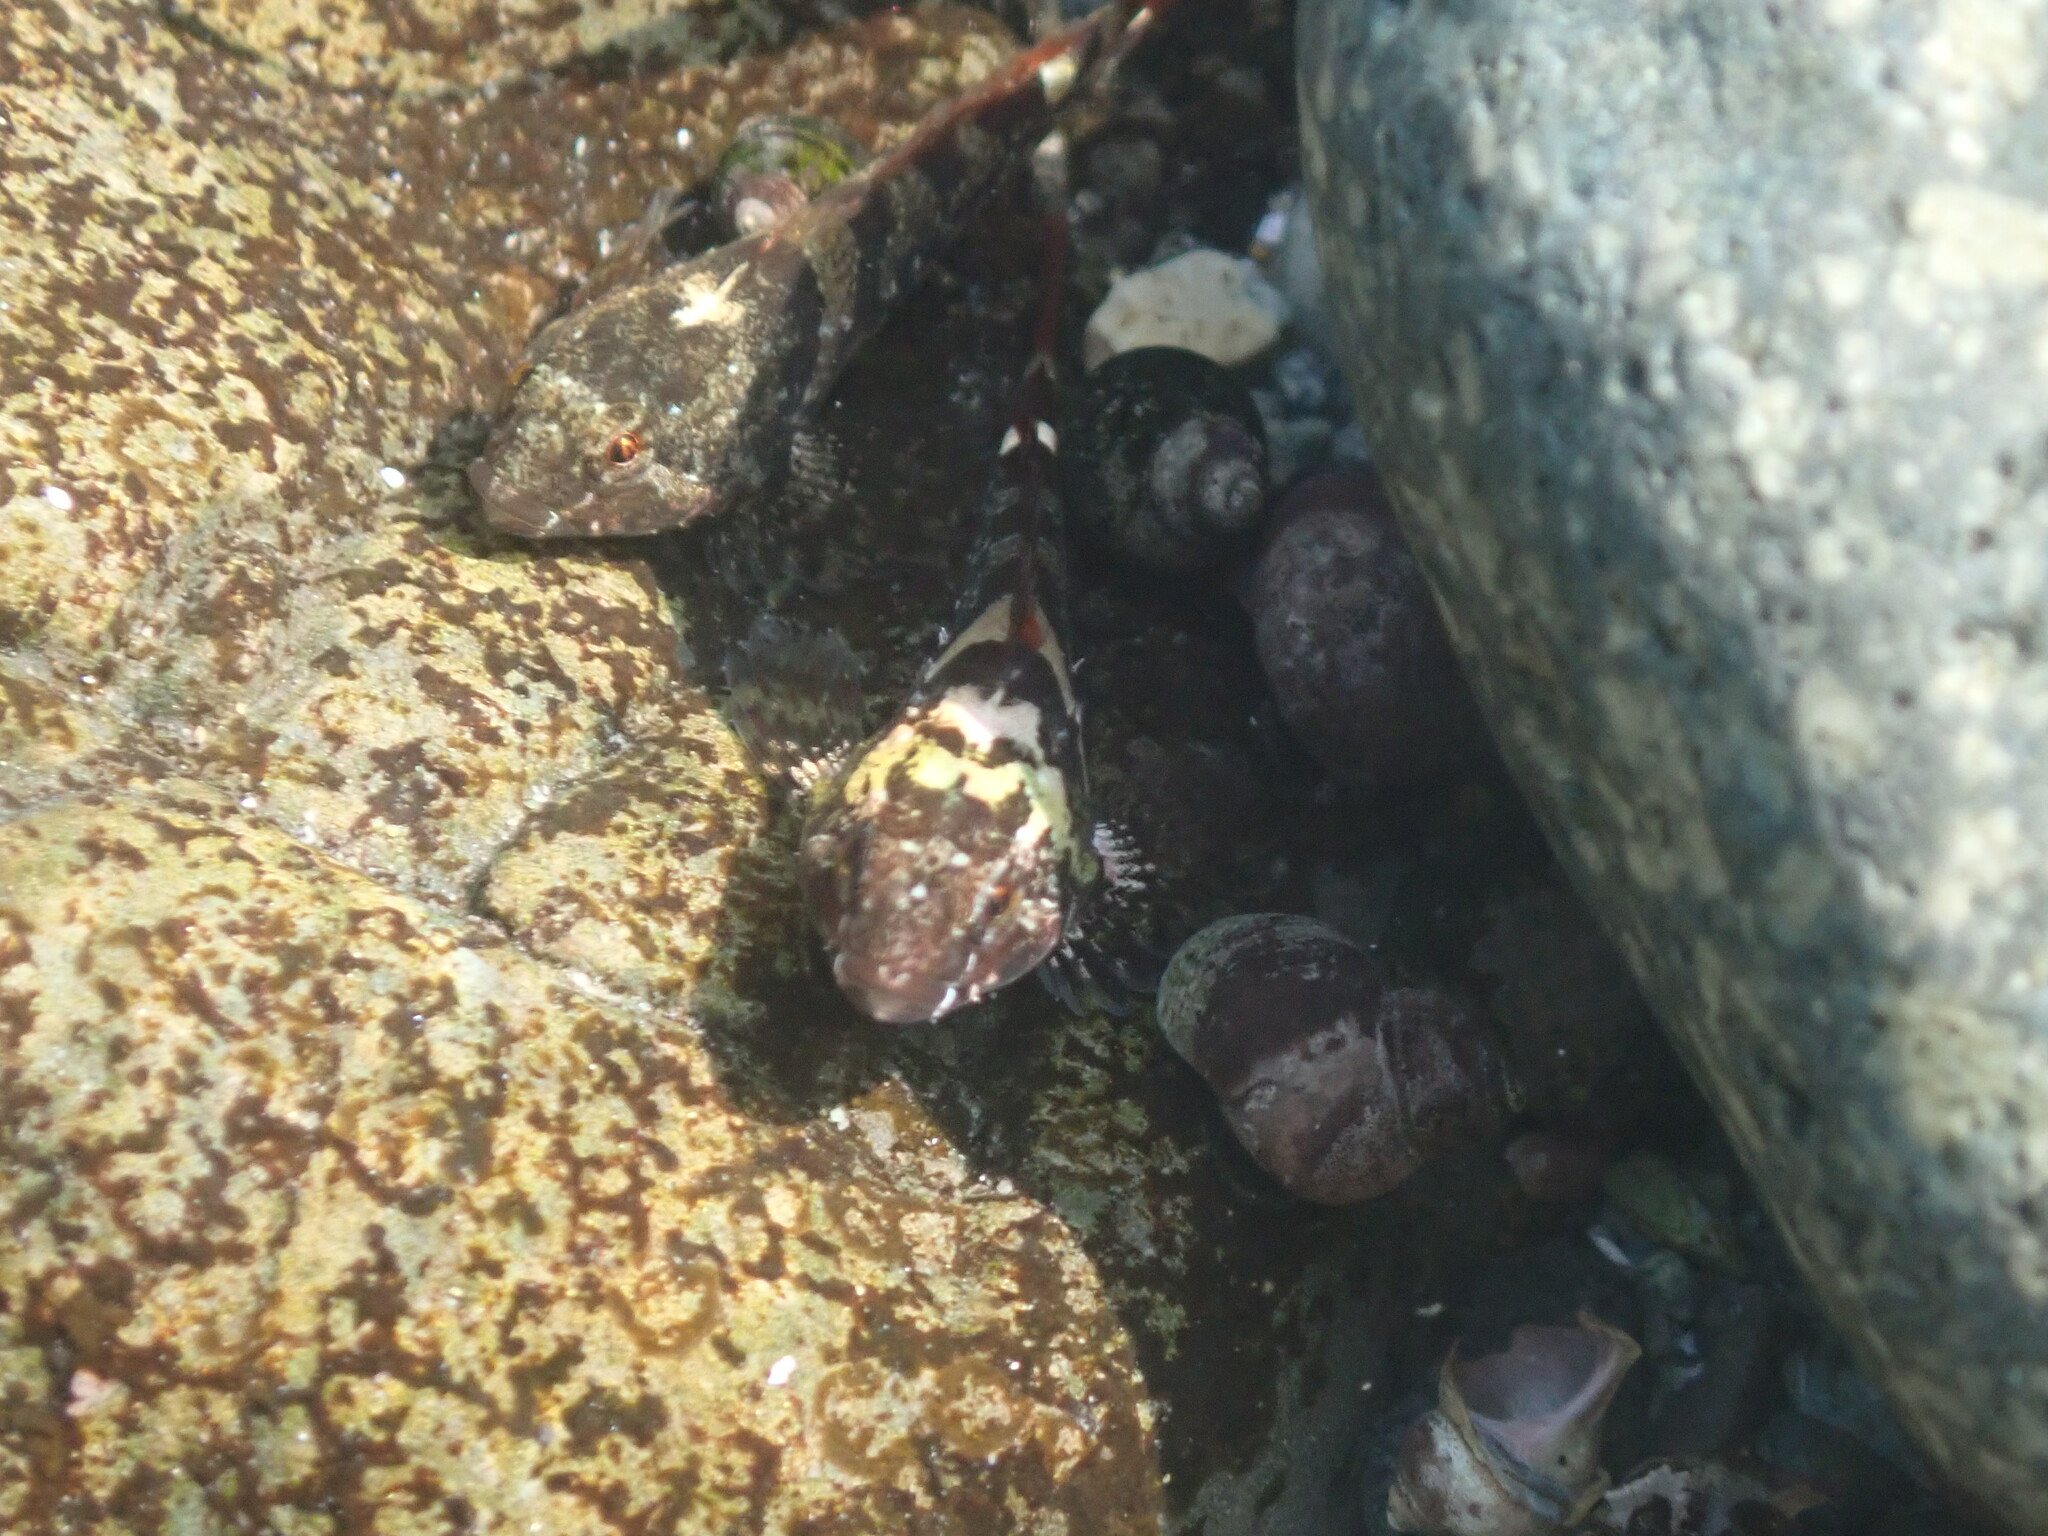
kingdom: Animalia
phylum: Chordata
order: Scorpaeniformes
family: Cottidae
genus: Oligocottus
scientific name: Oligocottus maculosus
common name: Tidepool sculpin
